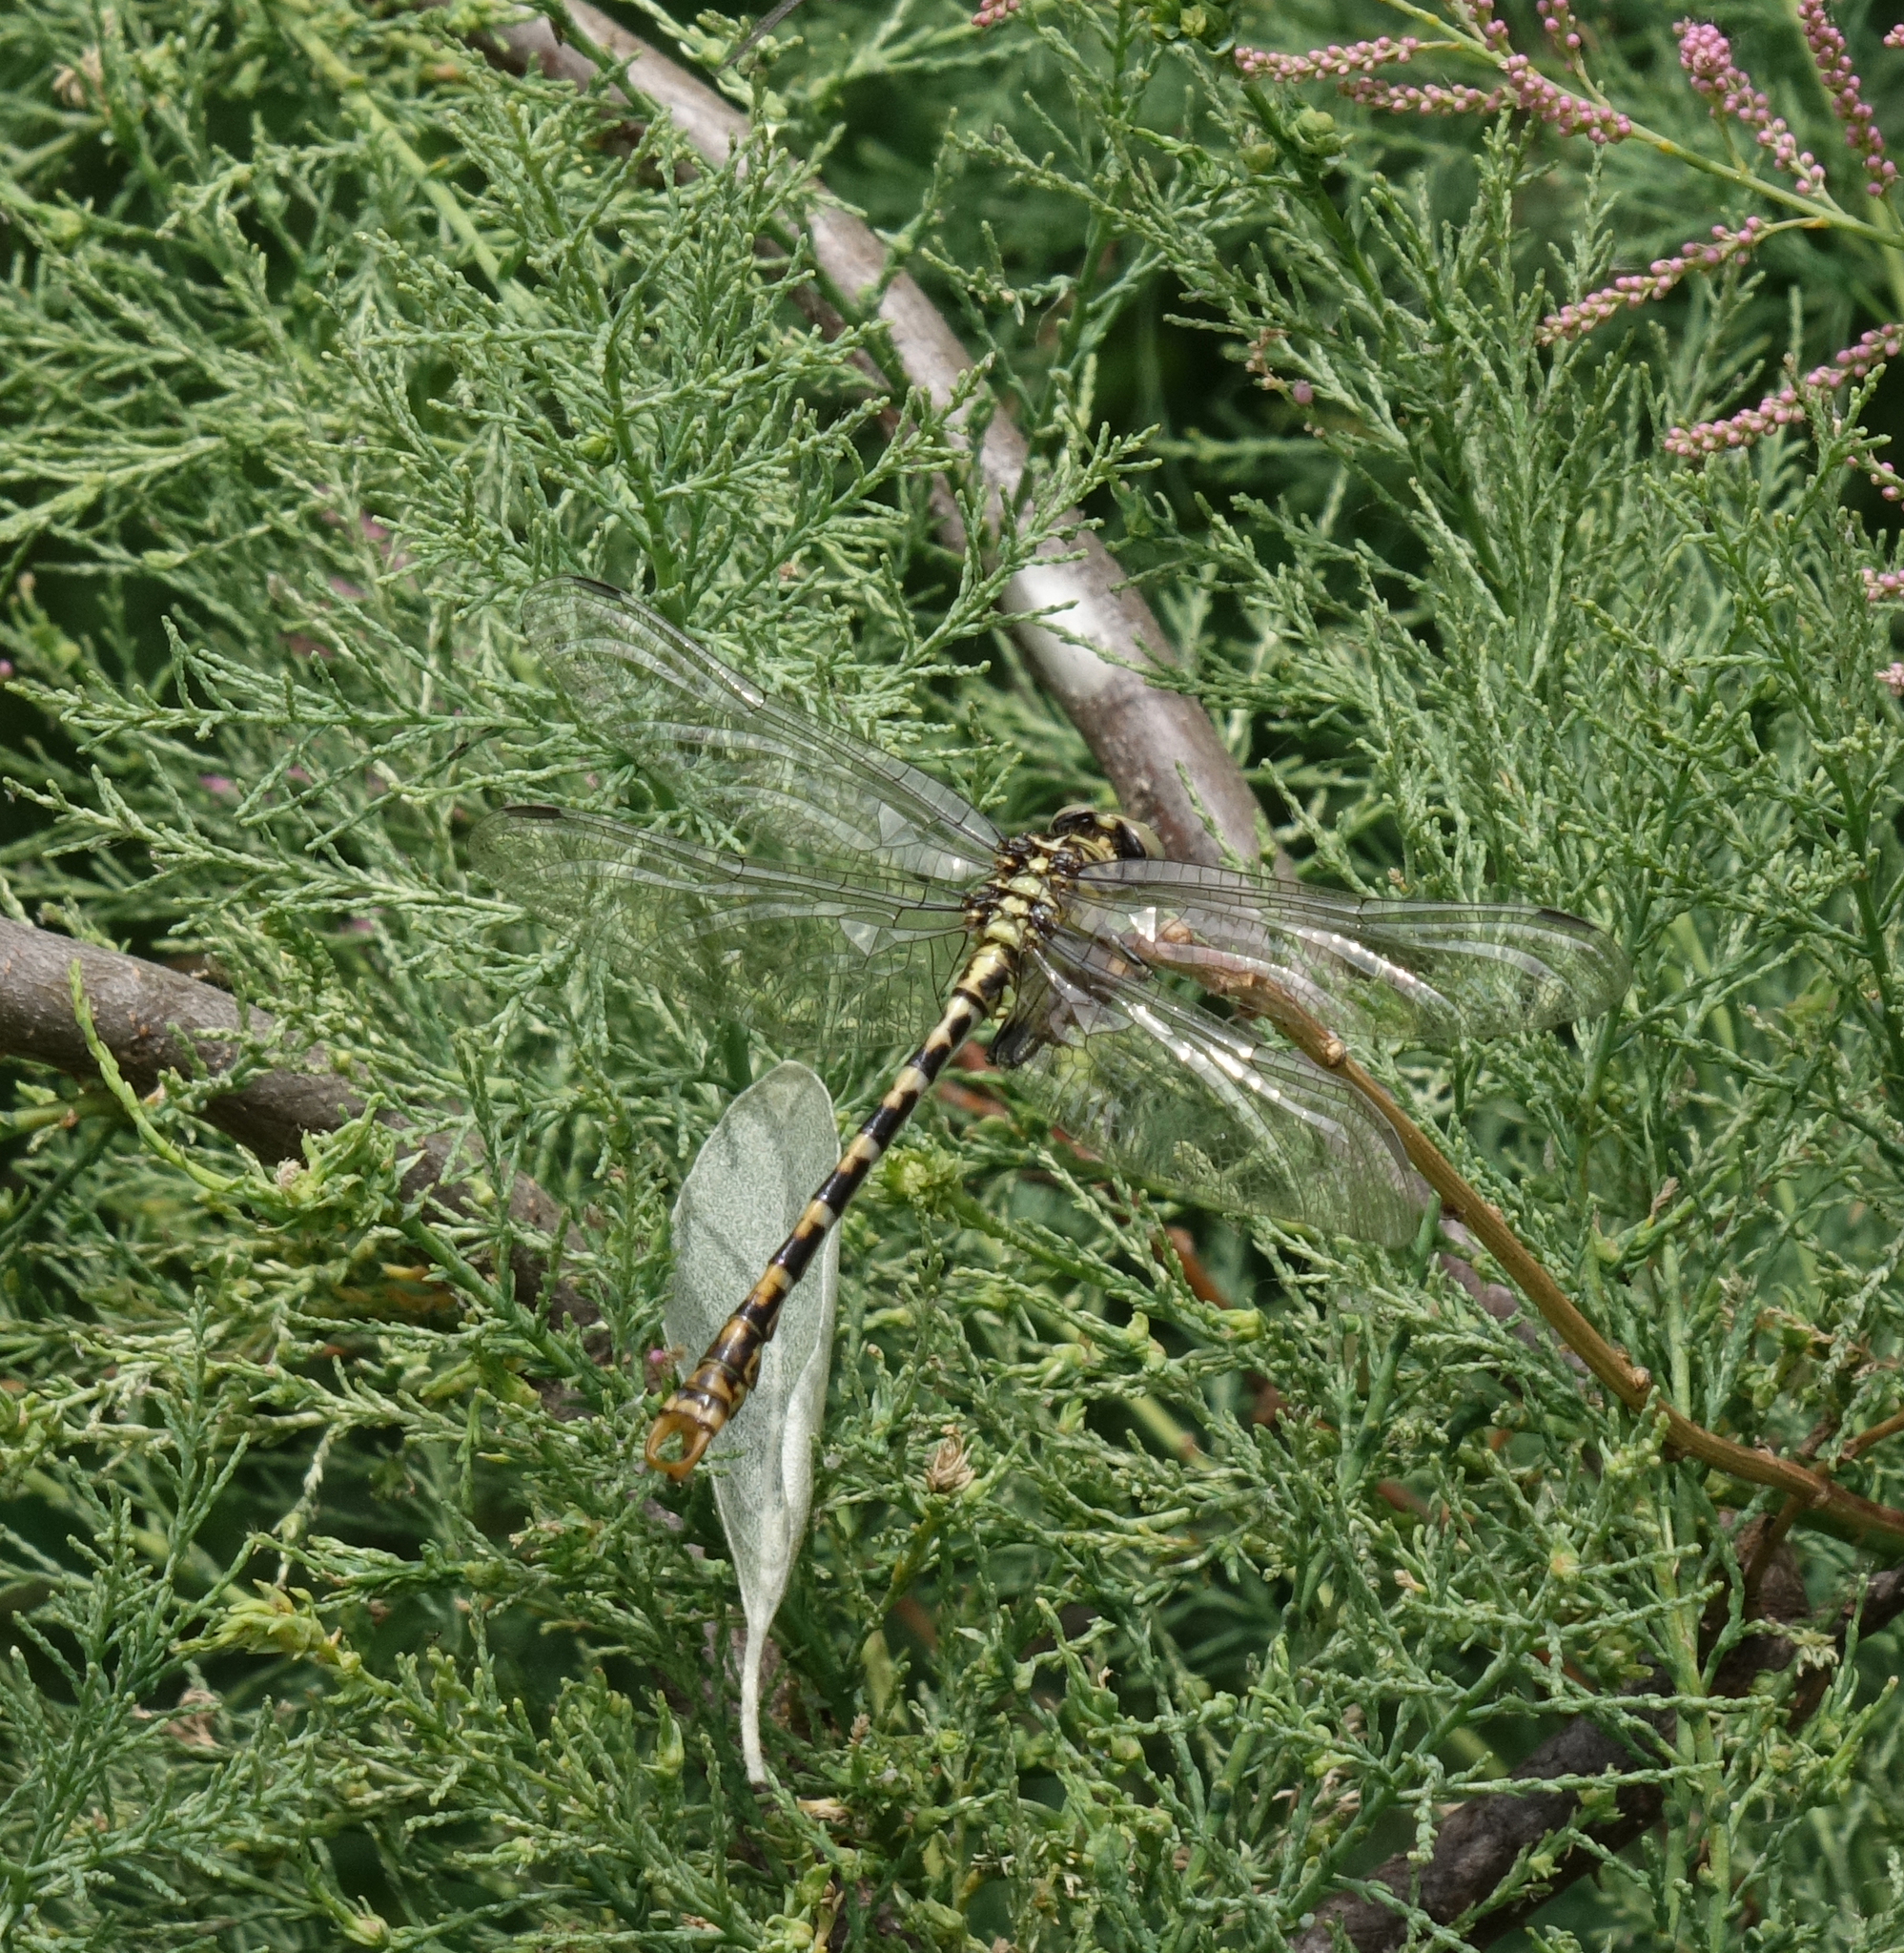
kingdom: Animalia
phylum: Arthropoda
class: Insecta
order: Odonata
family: Gomphidae
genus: Onychogomphus
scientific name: Onychogomphus forcipatus
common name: Small pincertail
